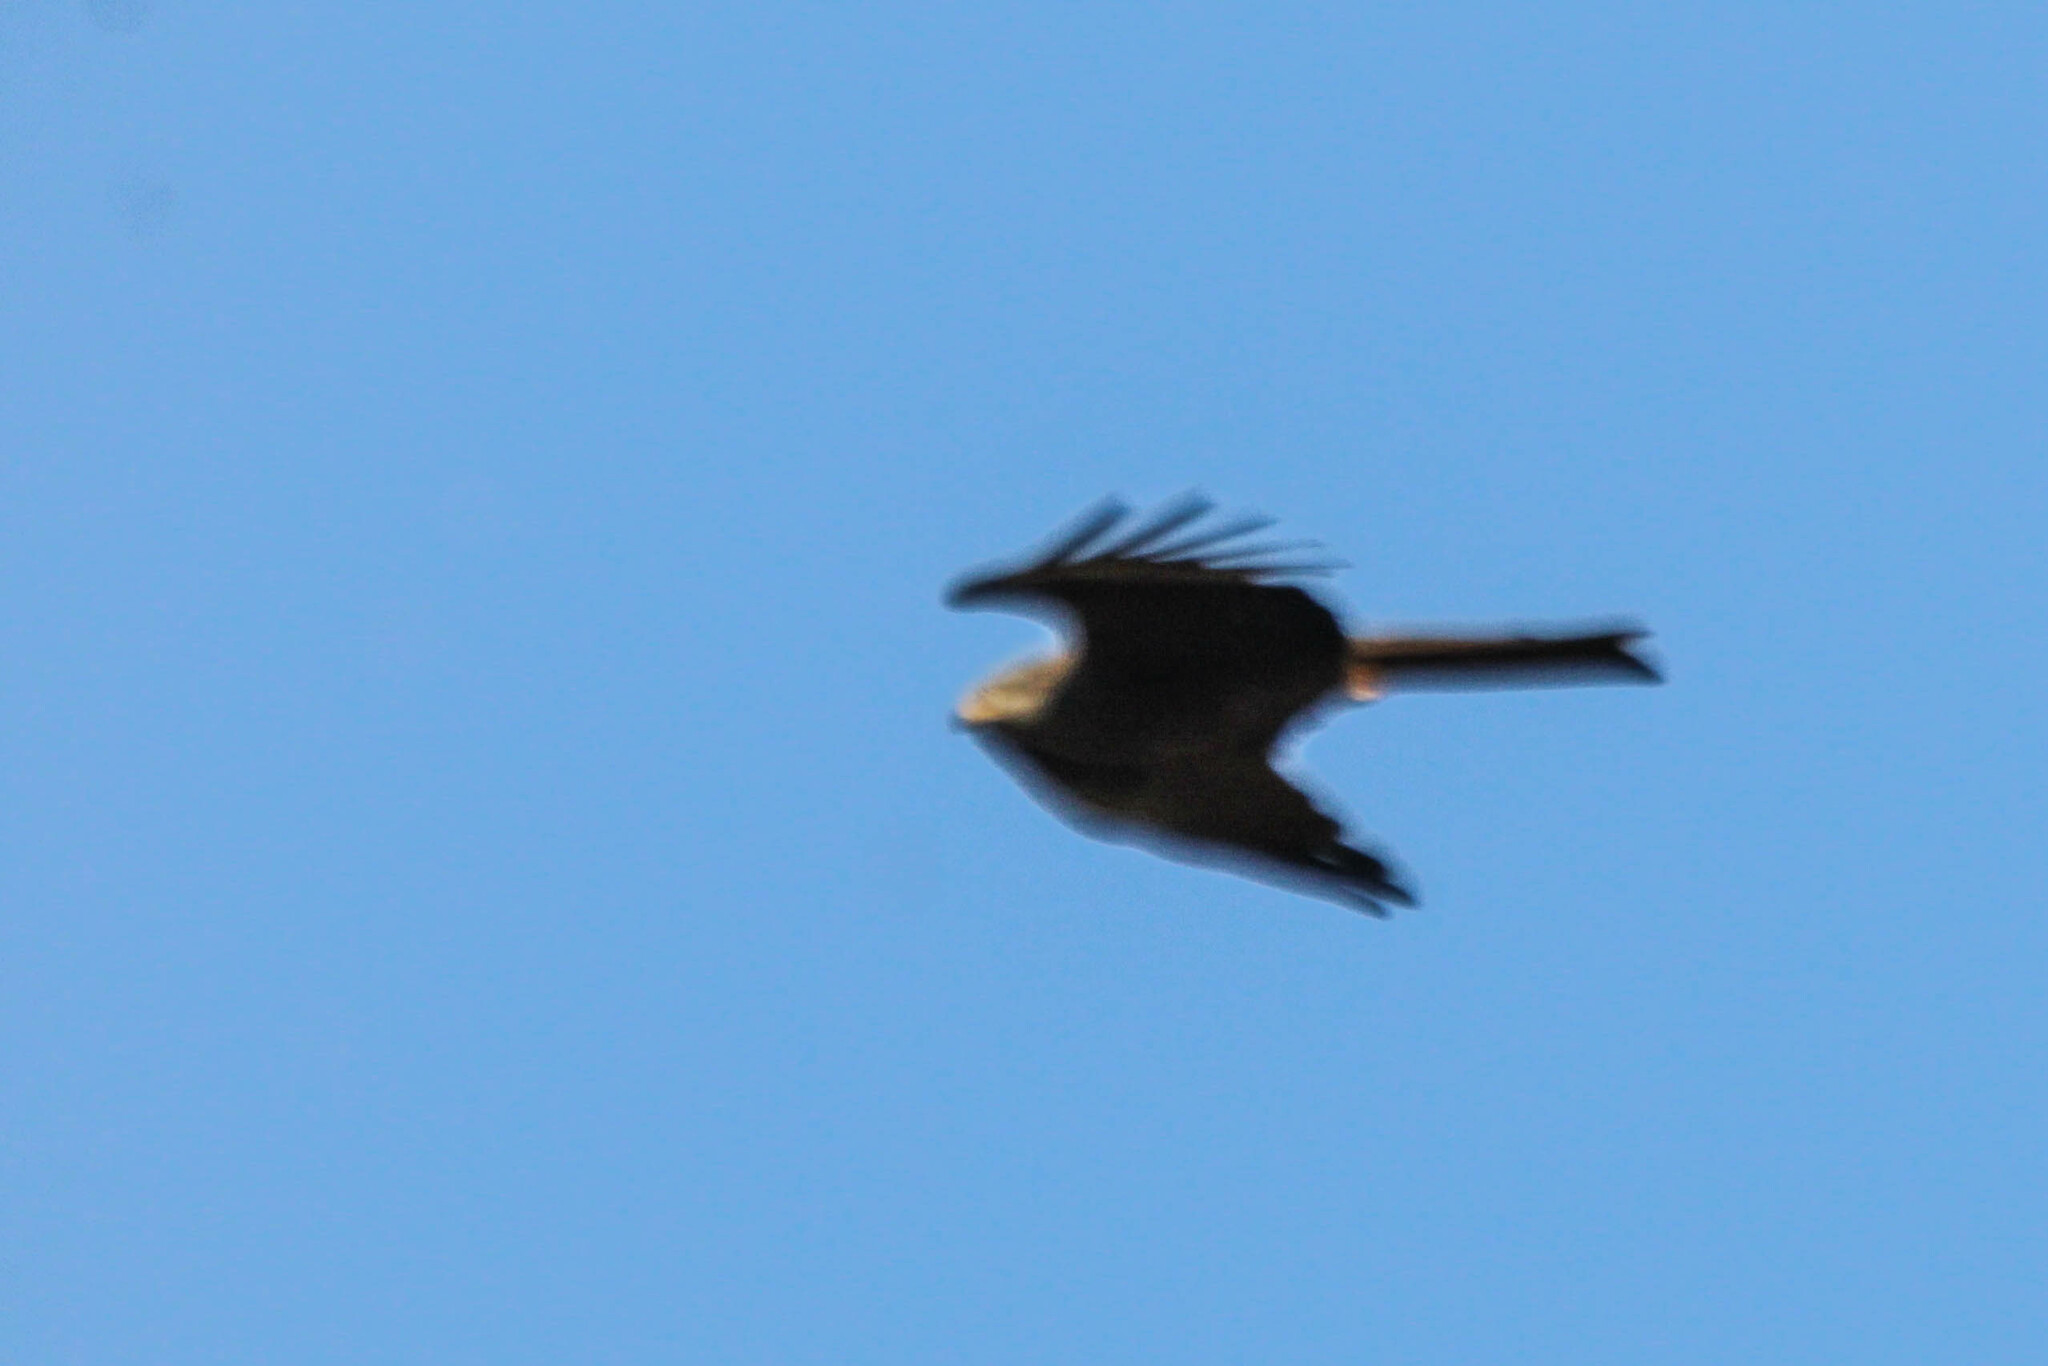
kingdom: Animalia
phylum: Chordata
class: Aves
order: Accipitriformes
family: Accipitridae
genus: Milvus
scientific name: Milvus migrans
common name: Black kite
